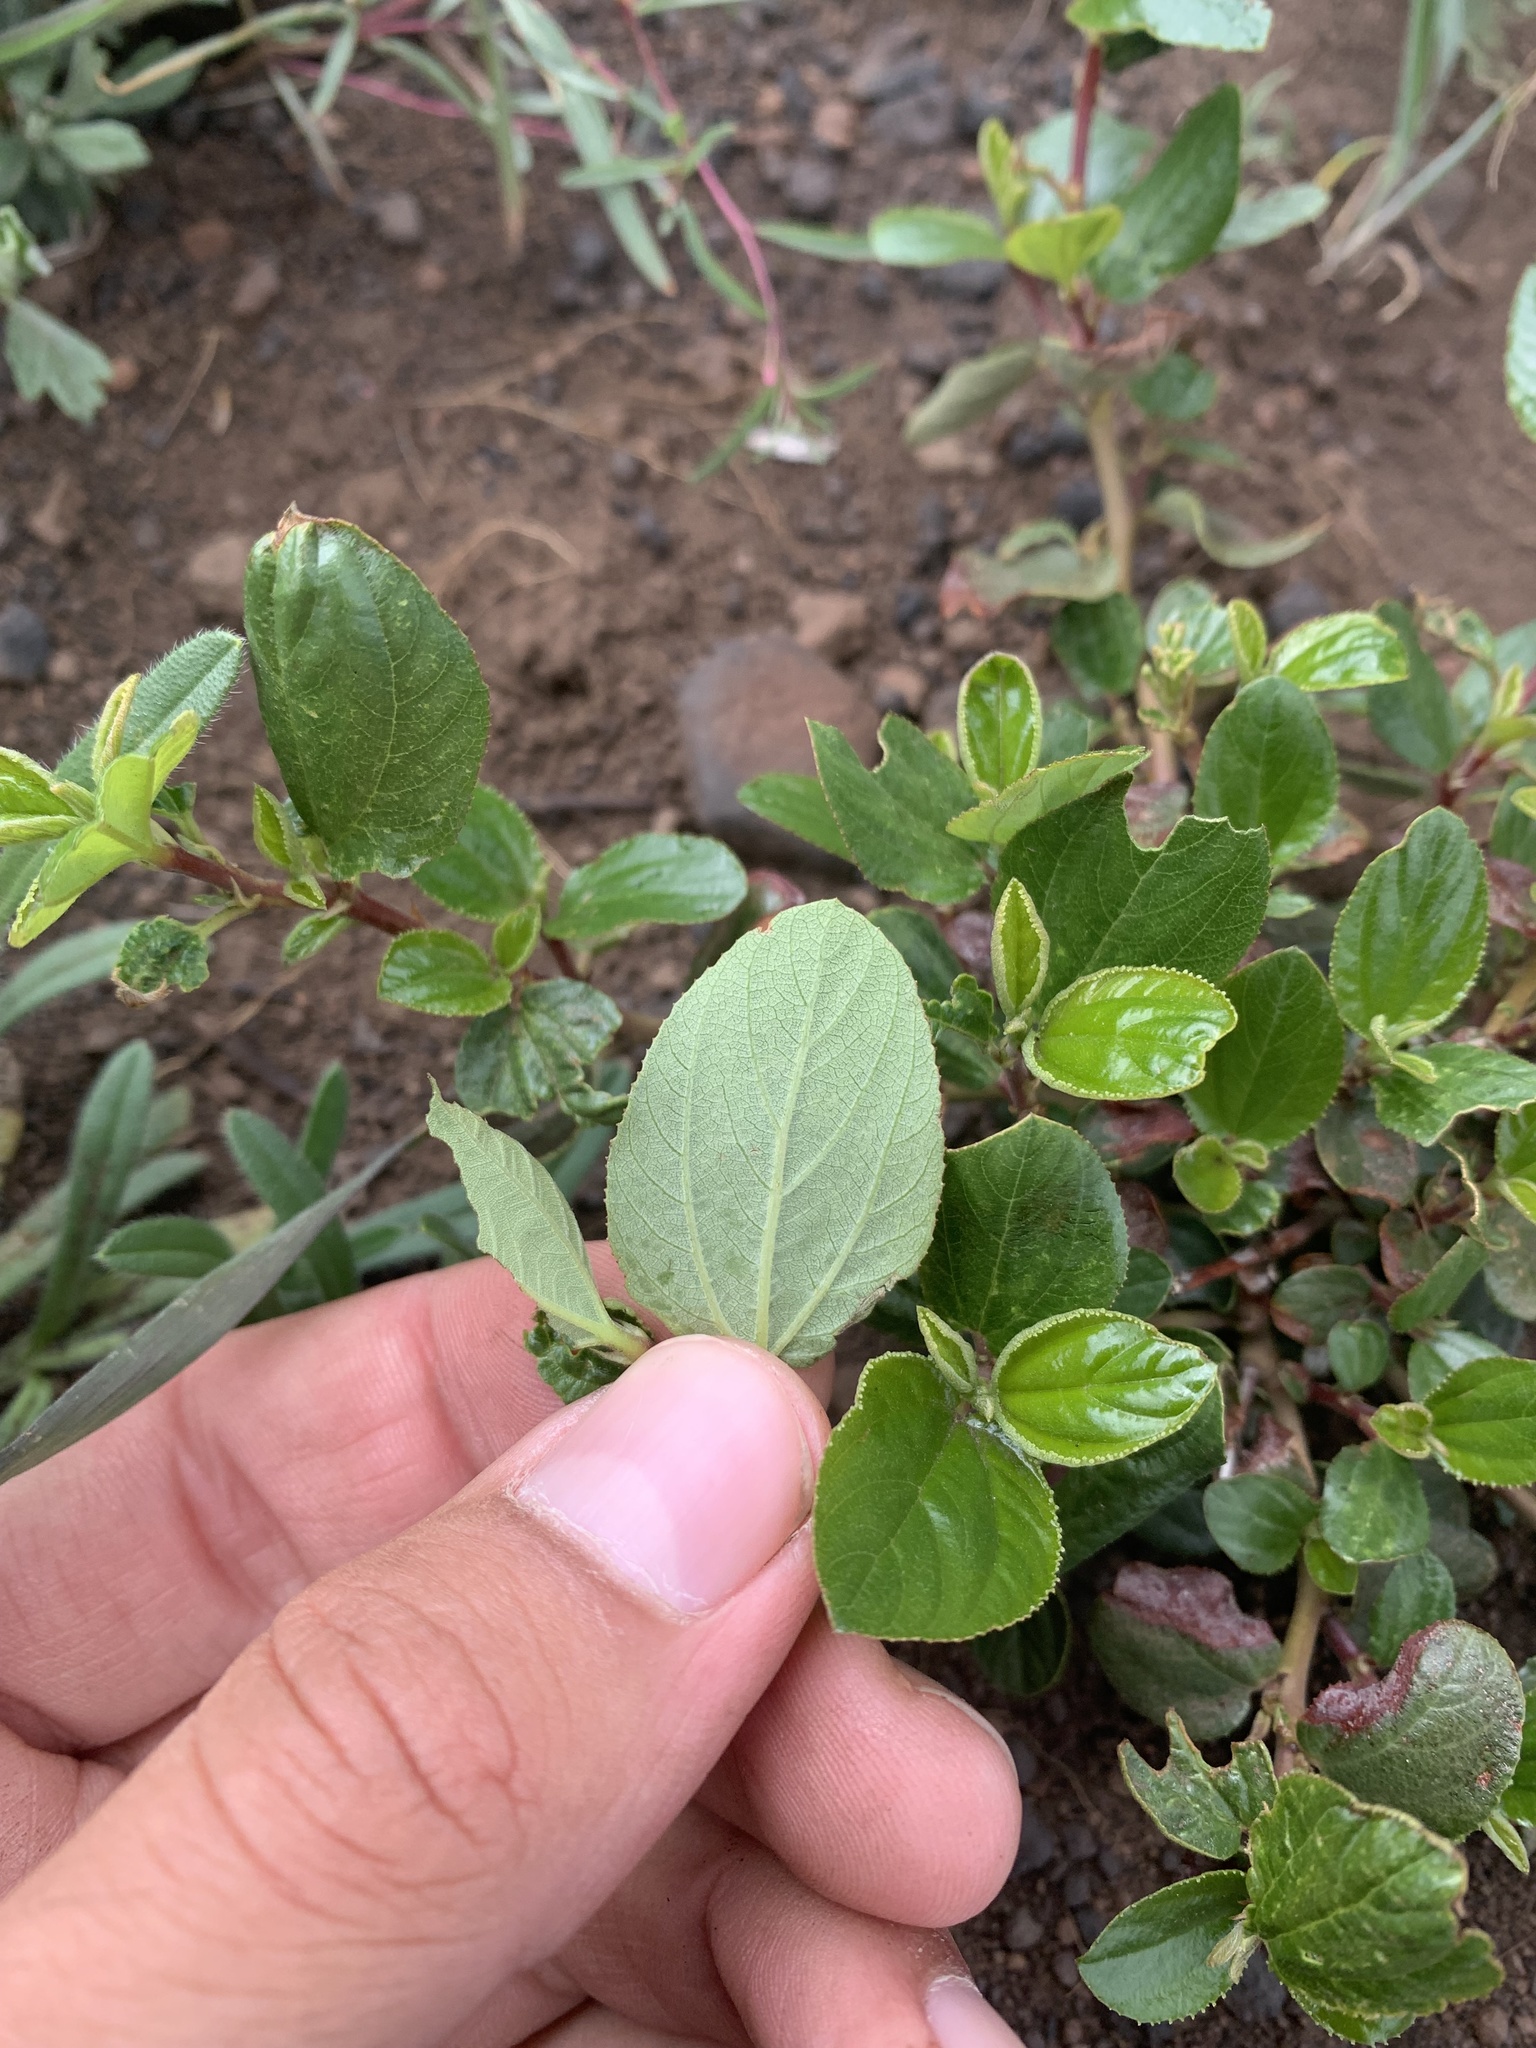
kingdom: Plantae
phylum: Tracheophyta
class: Magnoliopsida
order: Rosales
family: Rhamnaceae
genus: Ceanothus
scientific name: Ceanothus velutinus
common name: Snowbrush
